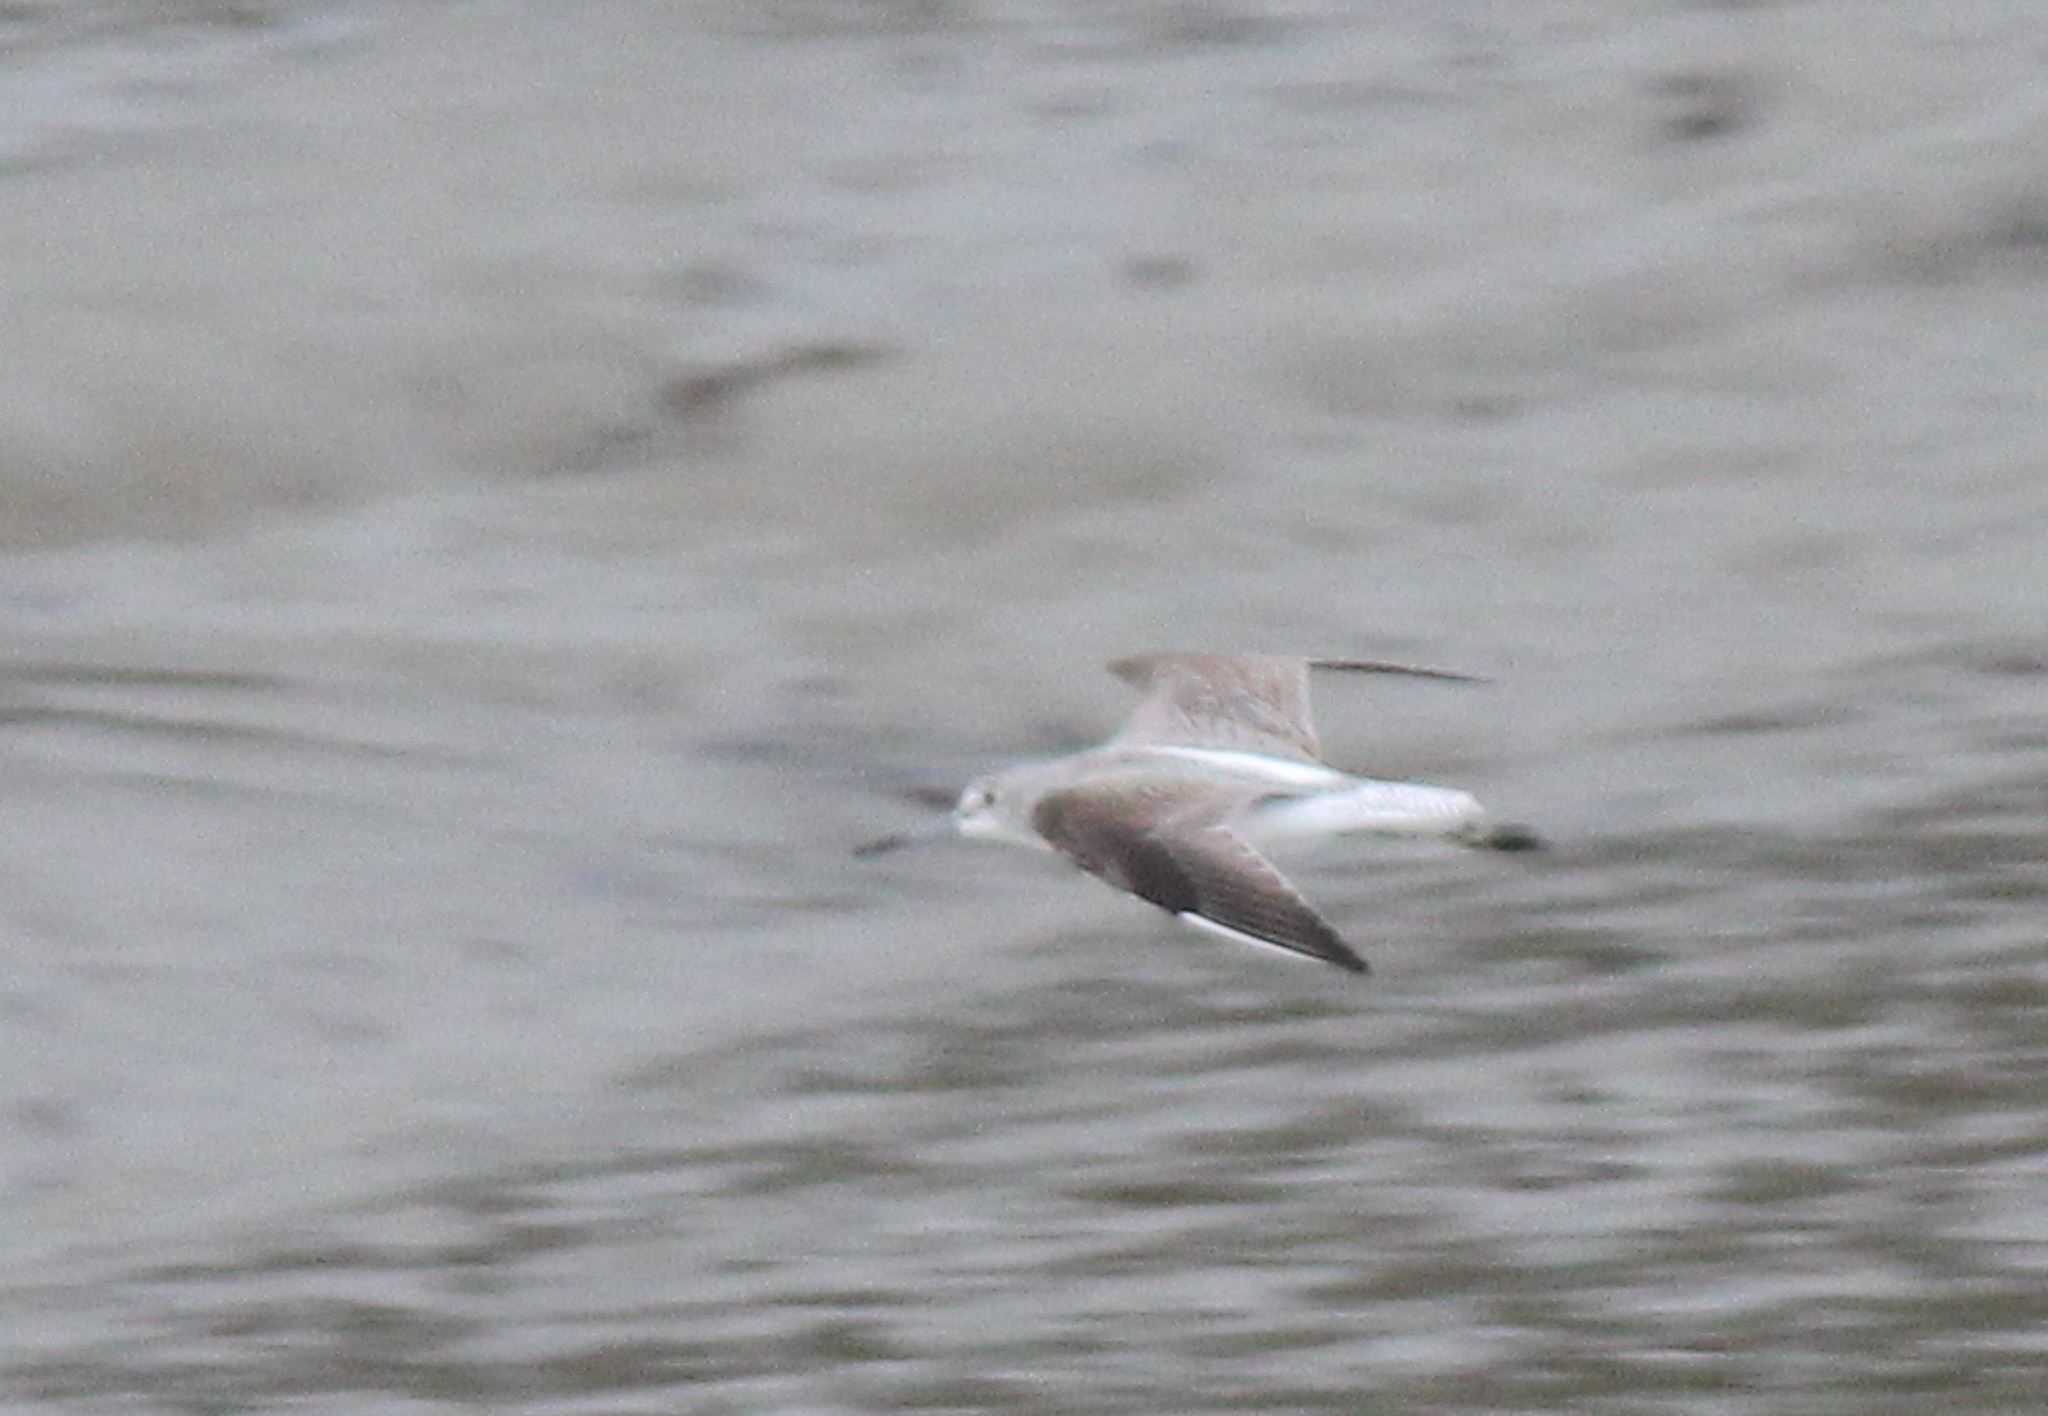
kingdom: Animalia
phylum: Chordata
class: Aves
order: Charadriiformes
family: Scolopacidae
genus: Tringa
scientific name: Tringa nebularia
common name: Common greenshank
